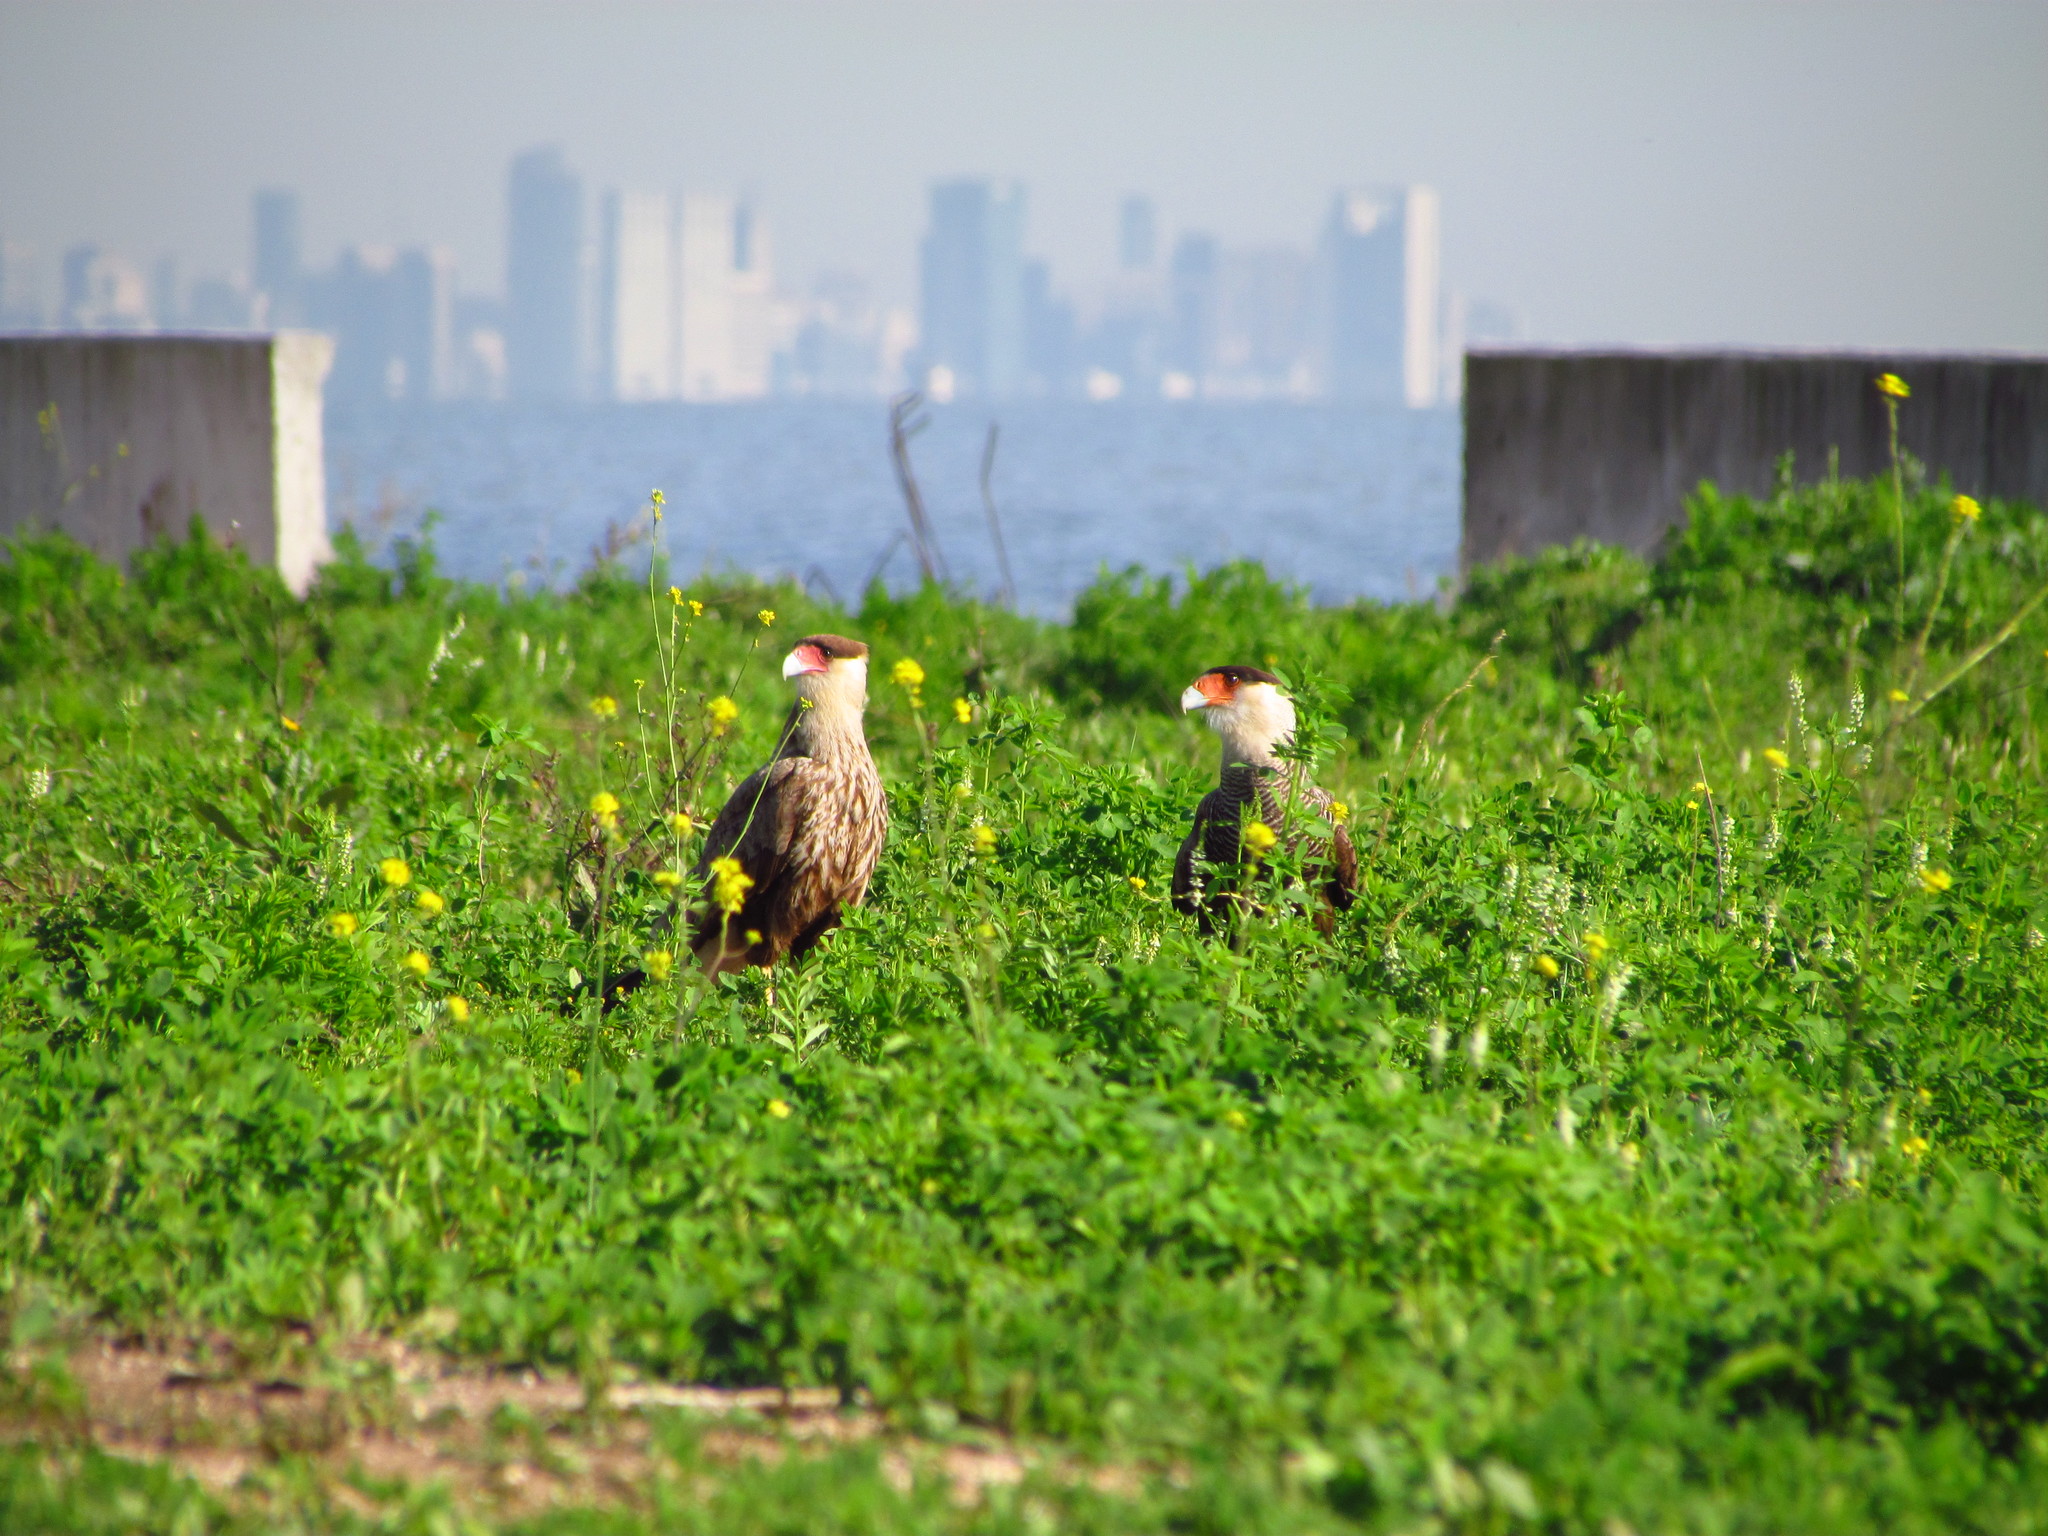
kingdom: Animalia
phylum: Chordata
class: Aves
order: Falconiformes
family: Falconidae
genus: Caracara
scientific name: Caracara plancus
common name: Southern caracara
